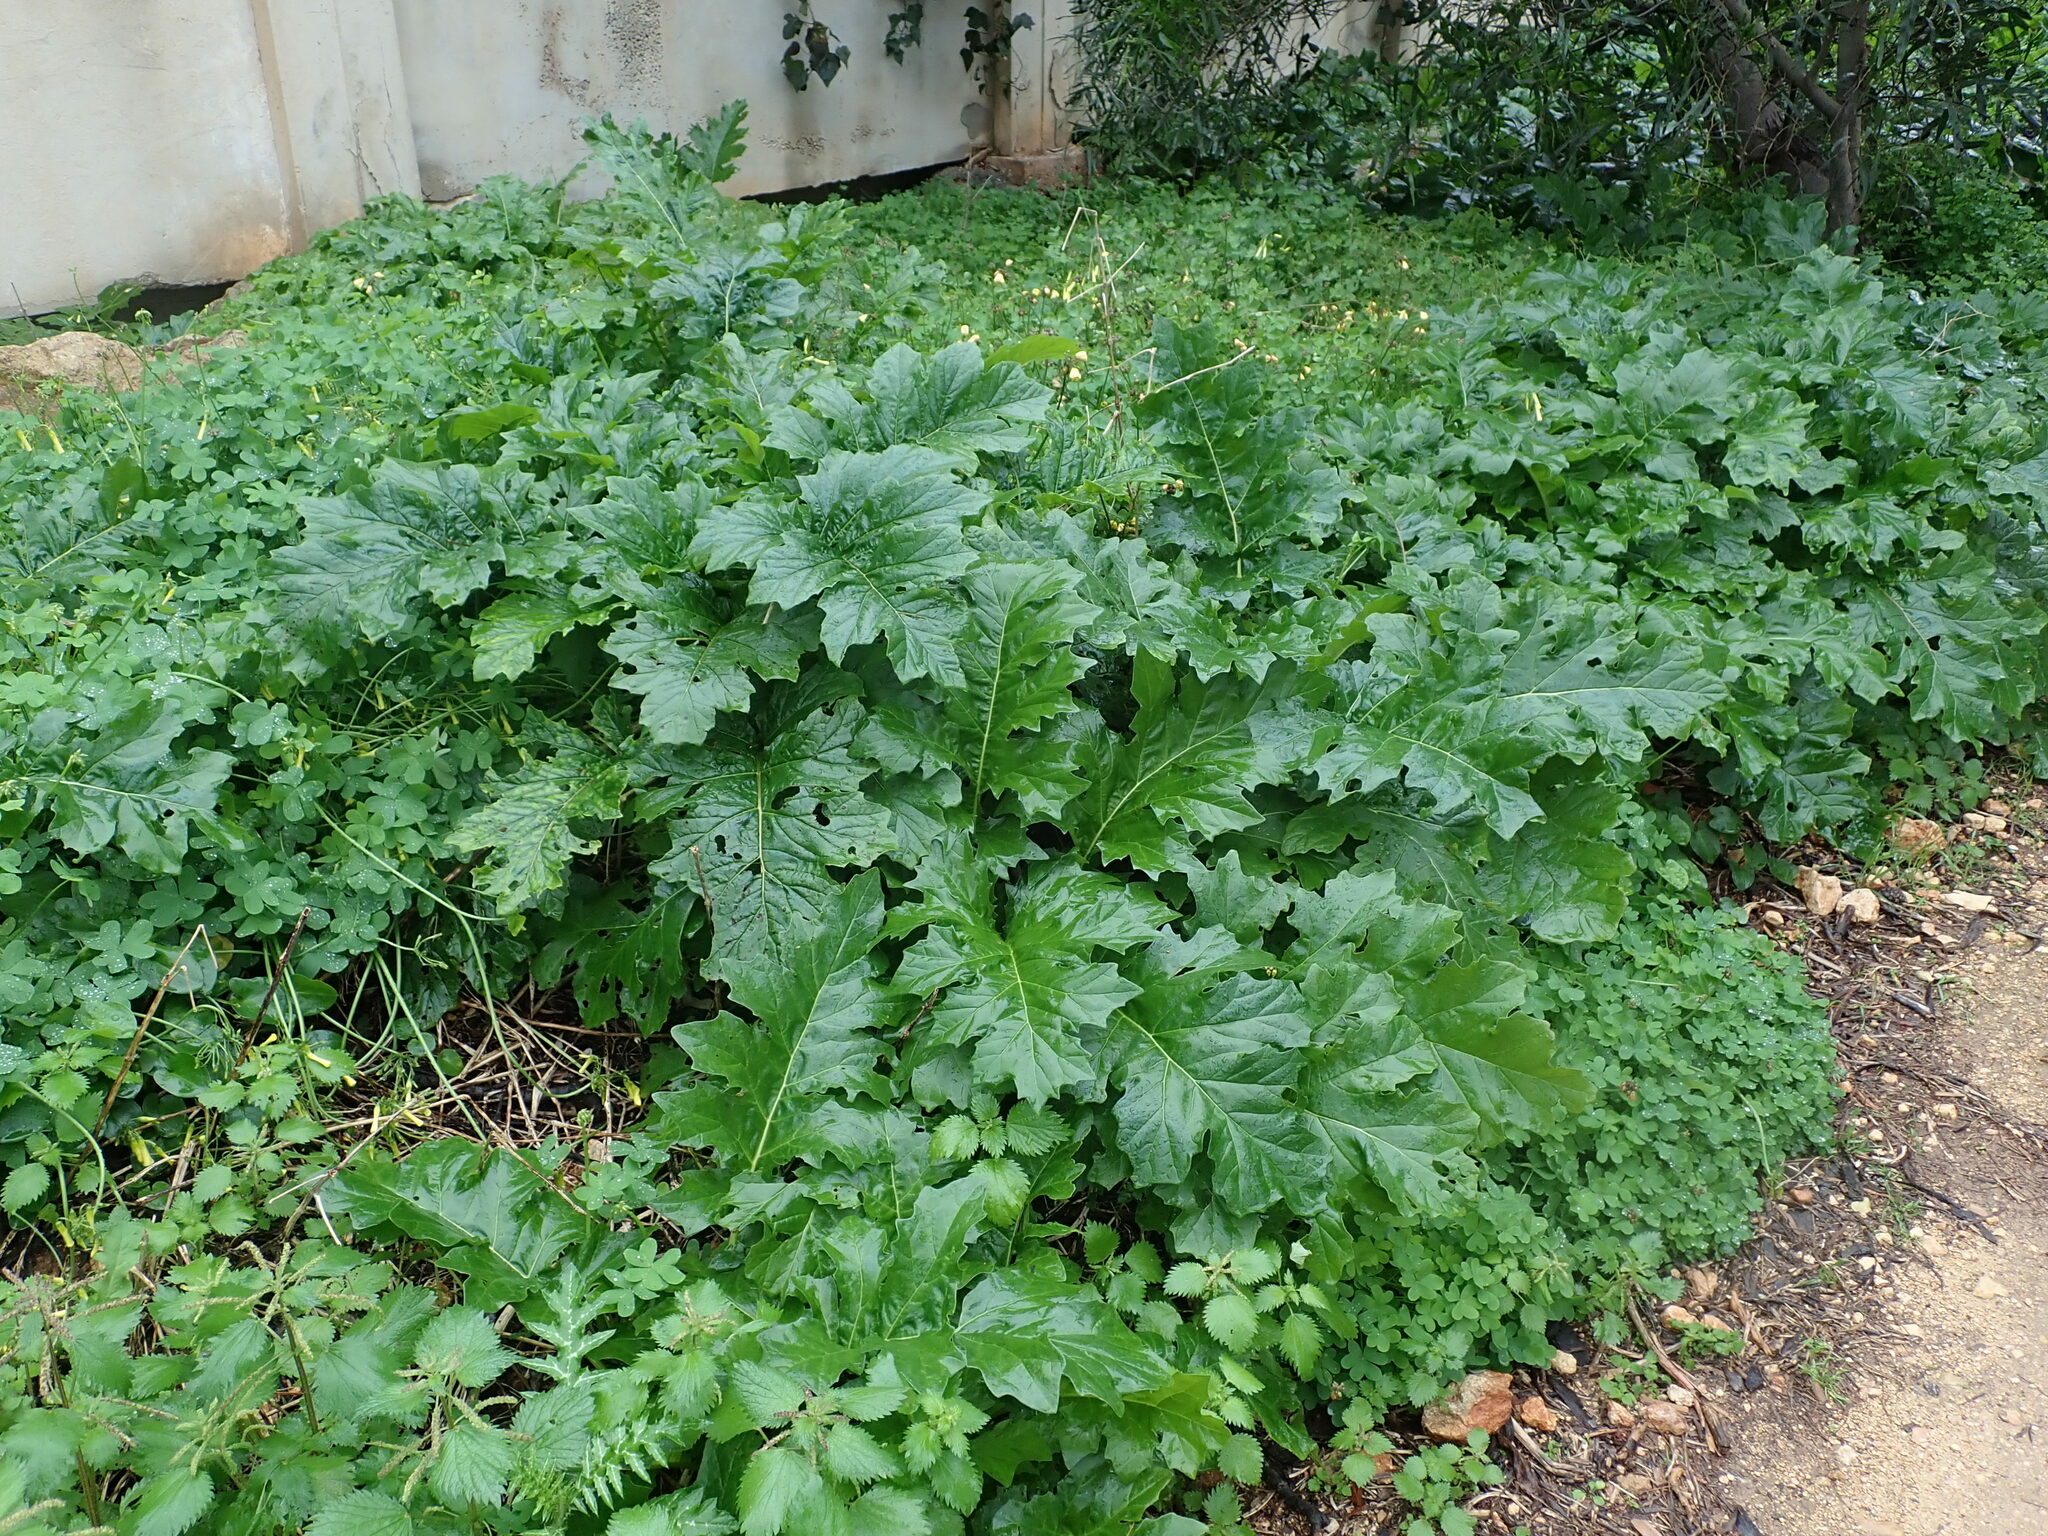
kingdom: Plantae
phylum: Tracheophyta
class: Magnoliopsida
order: Lamiales
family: Acanthaceae
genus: Acanthus
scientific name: Acanthus mollis
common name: Bear's-breech
